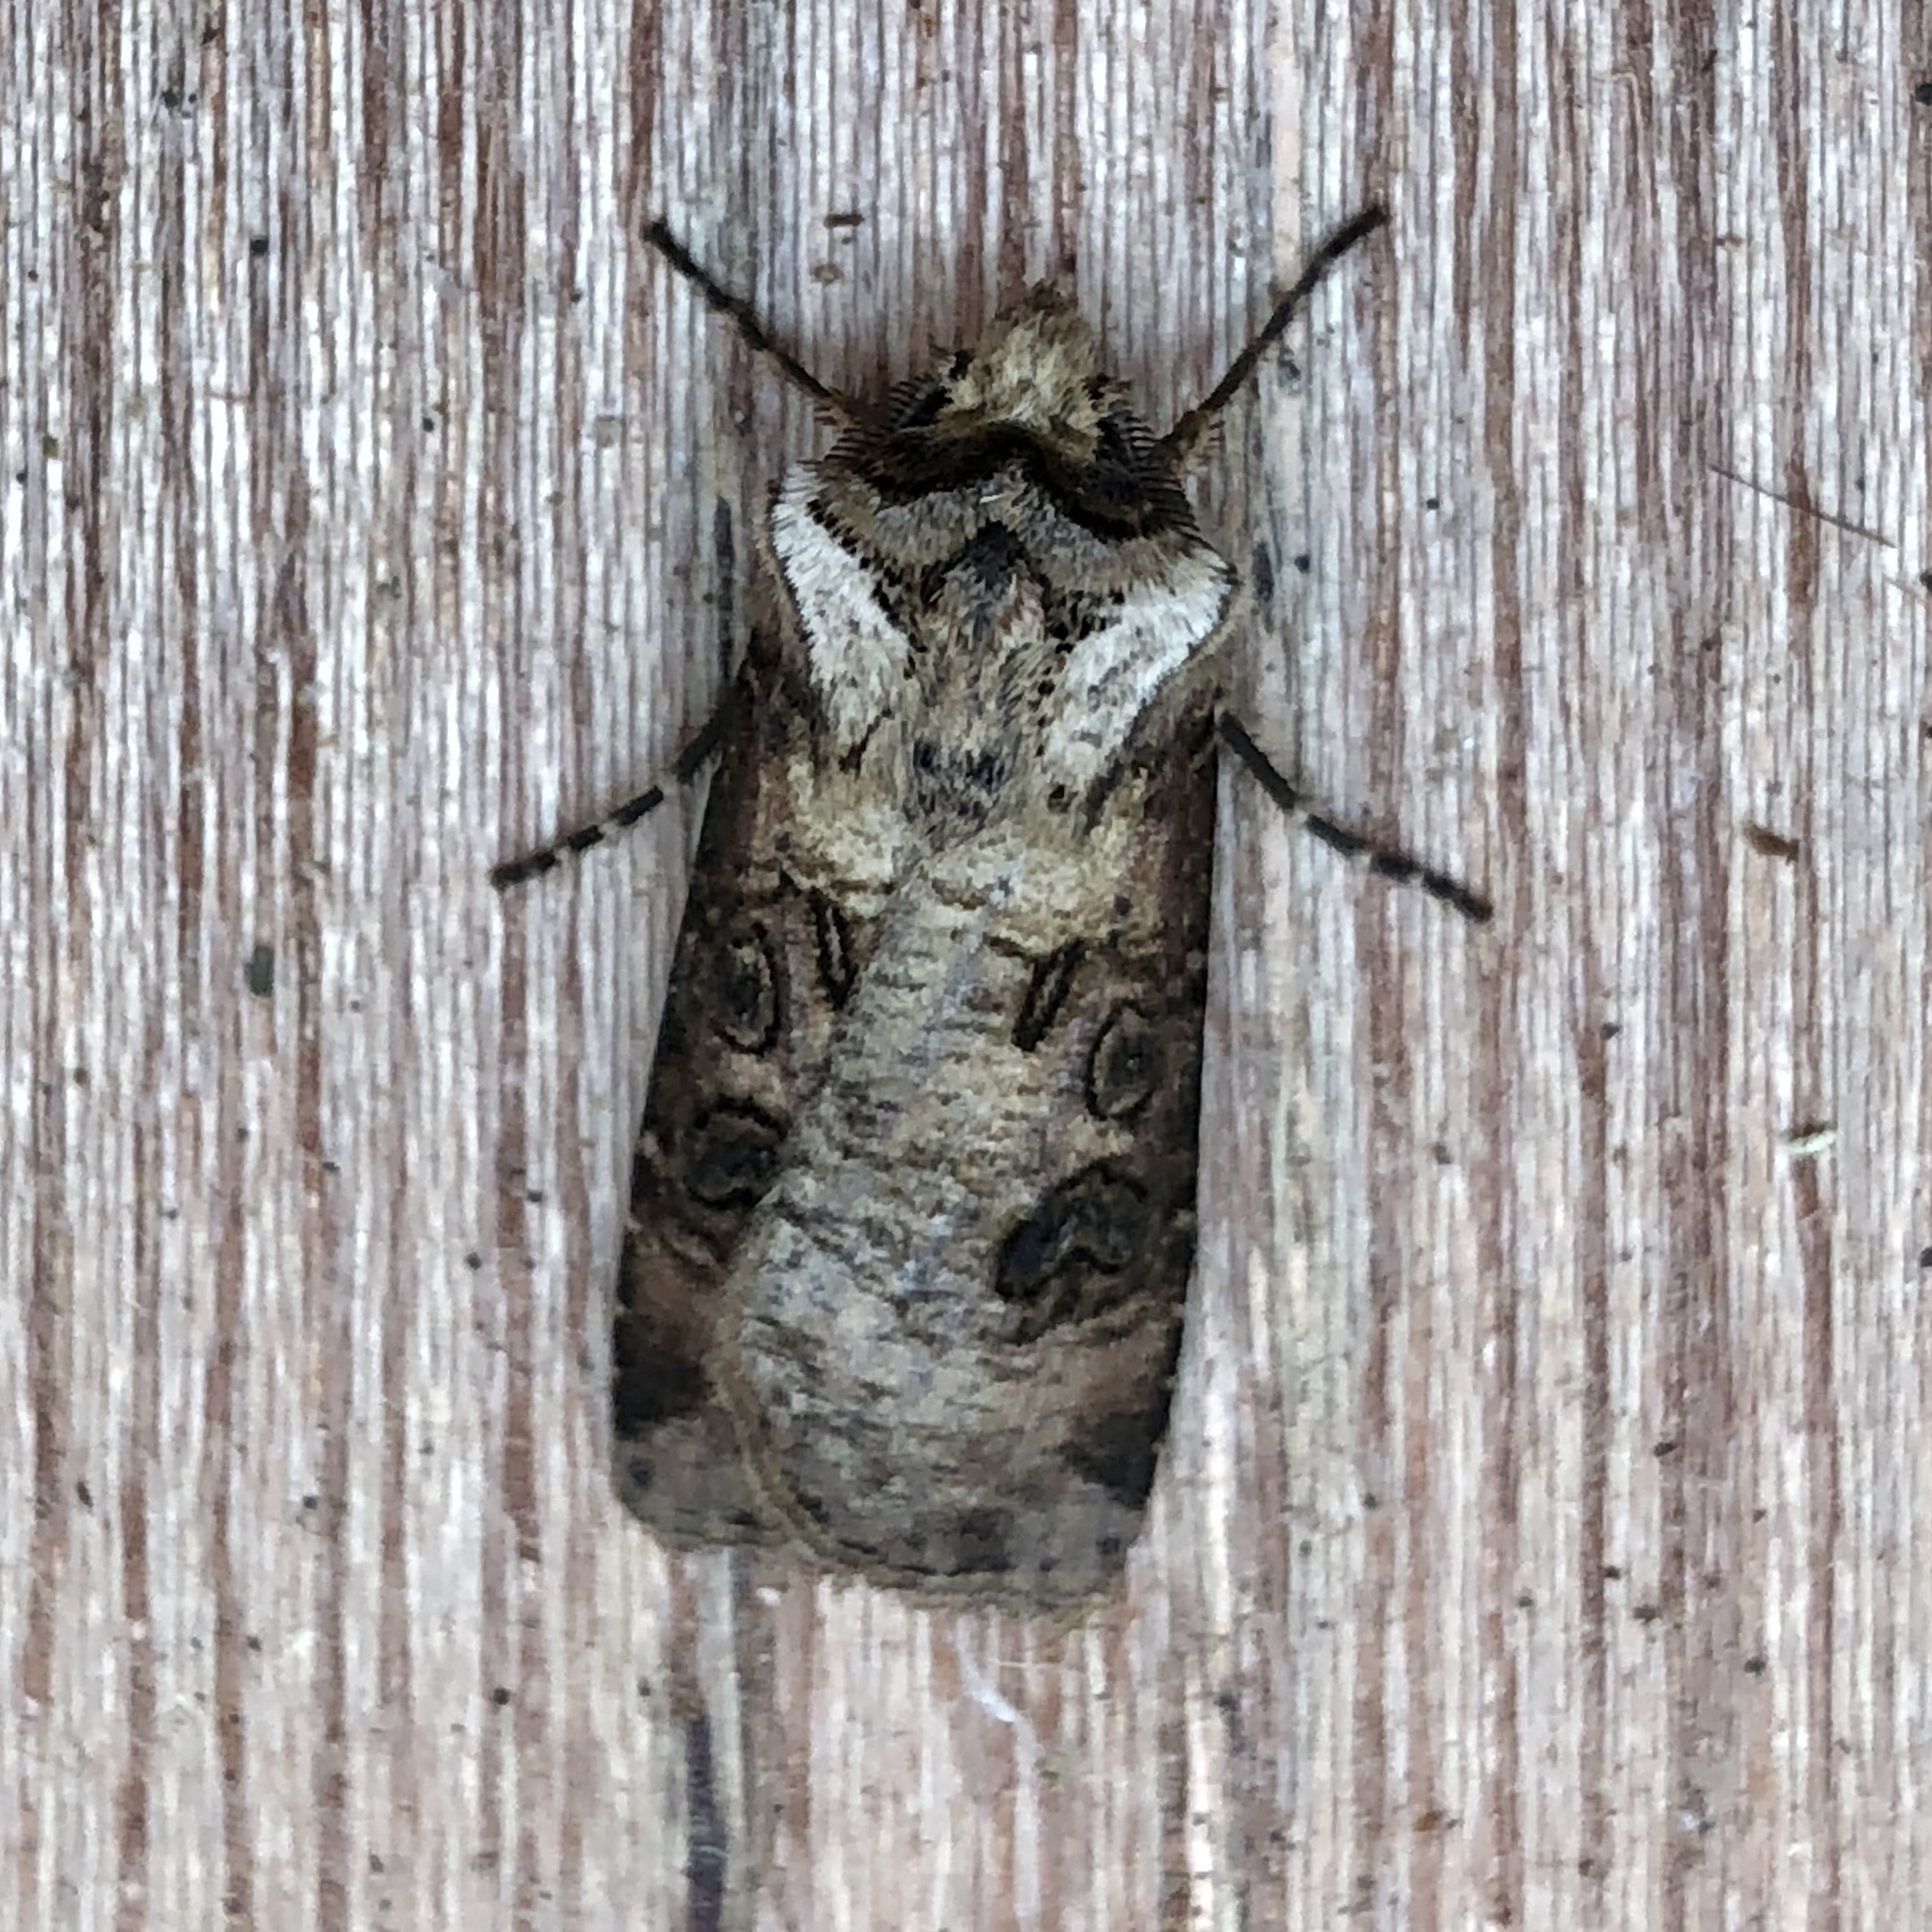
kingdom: Animalia
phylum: Arthropoda
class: Insecta
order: Lepidoptera
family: Noctuidae
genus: Agrotis
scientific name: Agrotis clavis
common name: Heart and club
